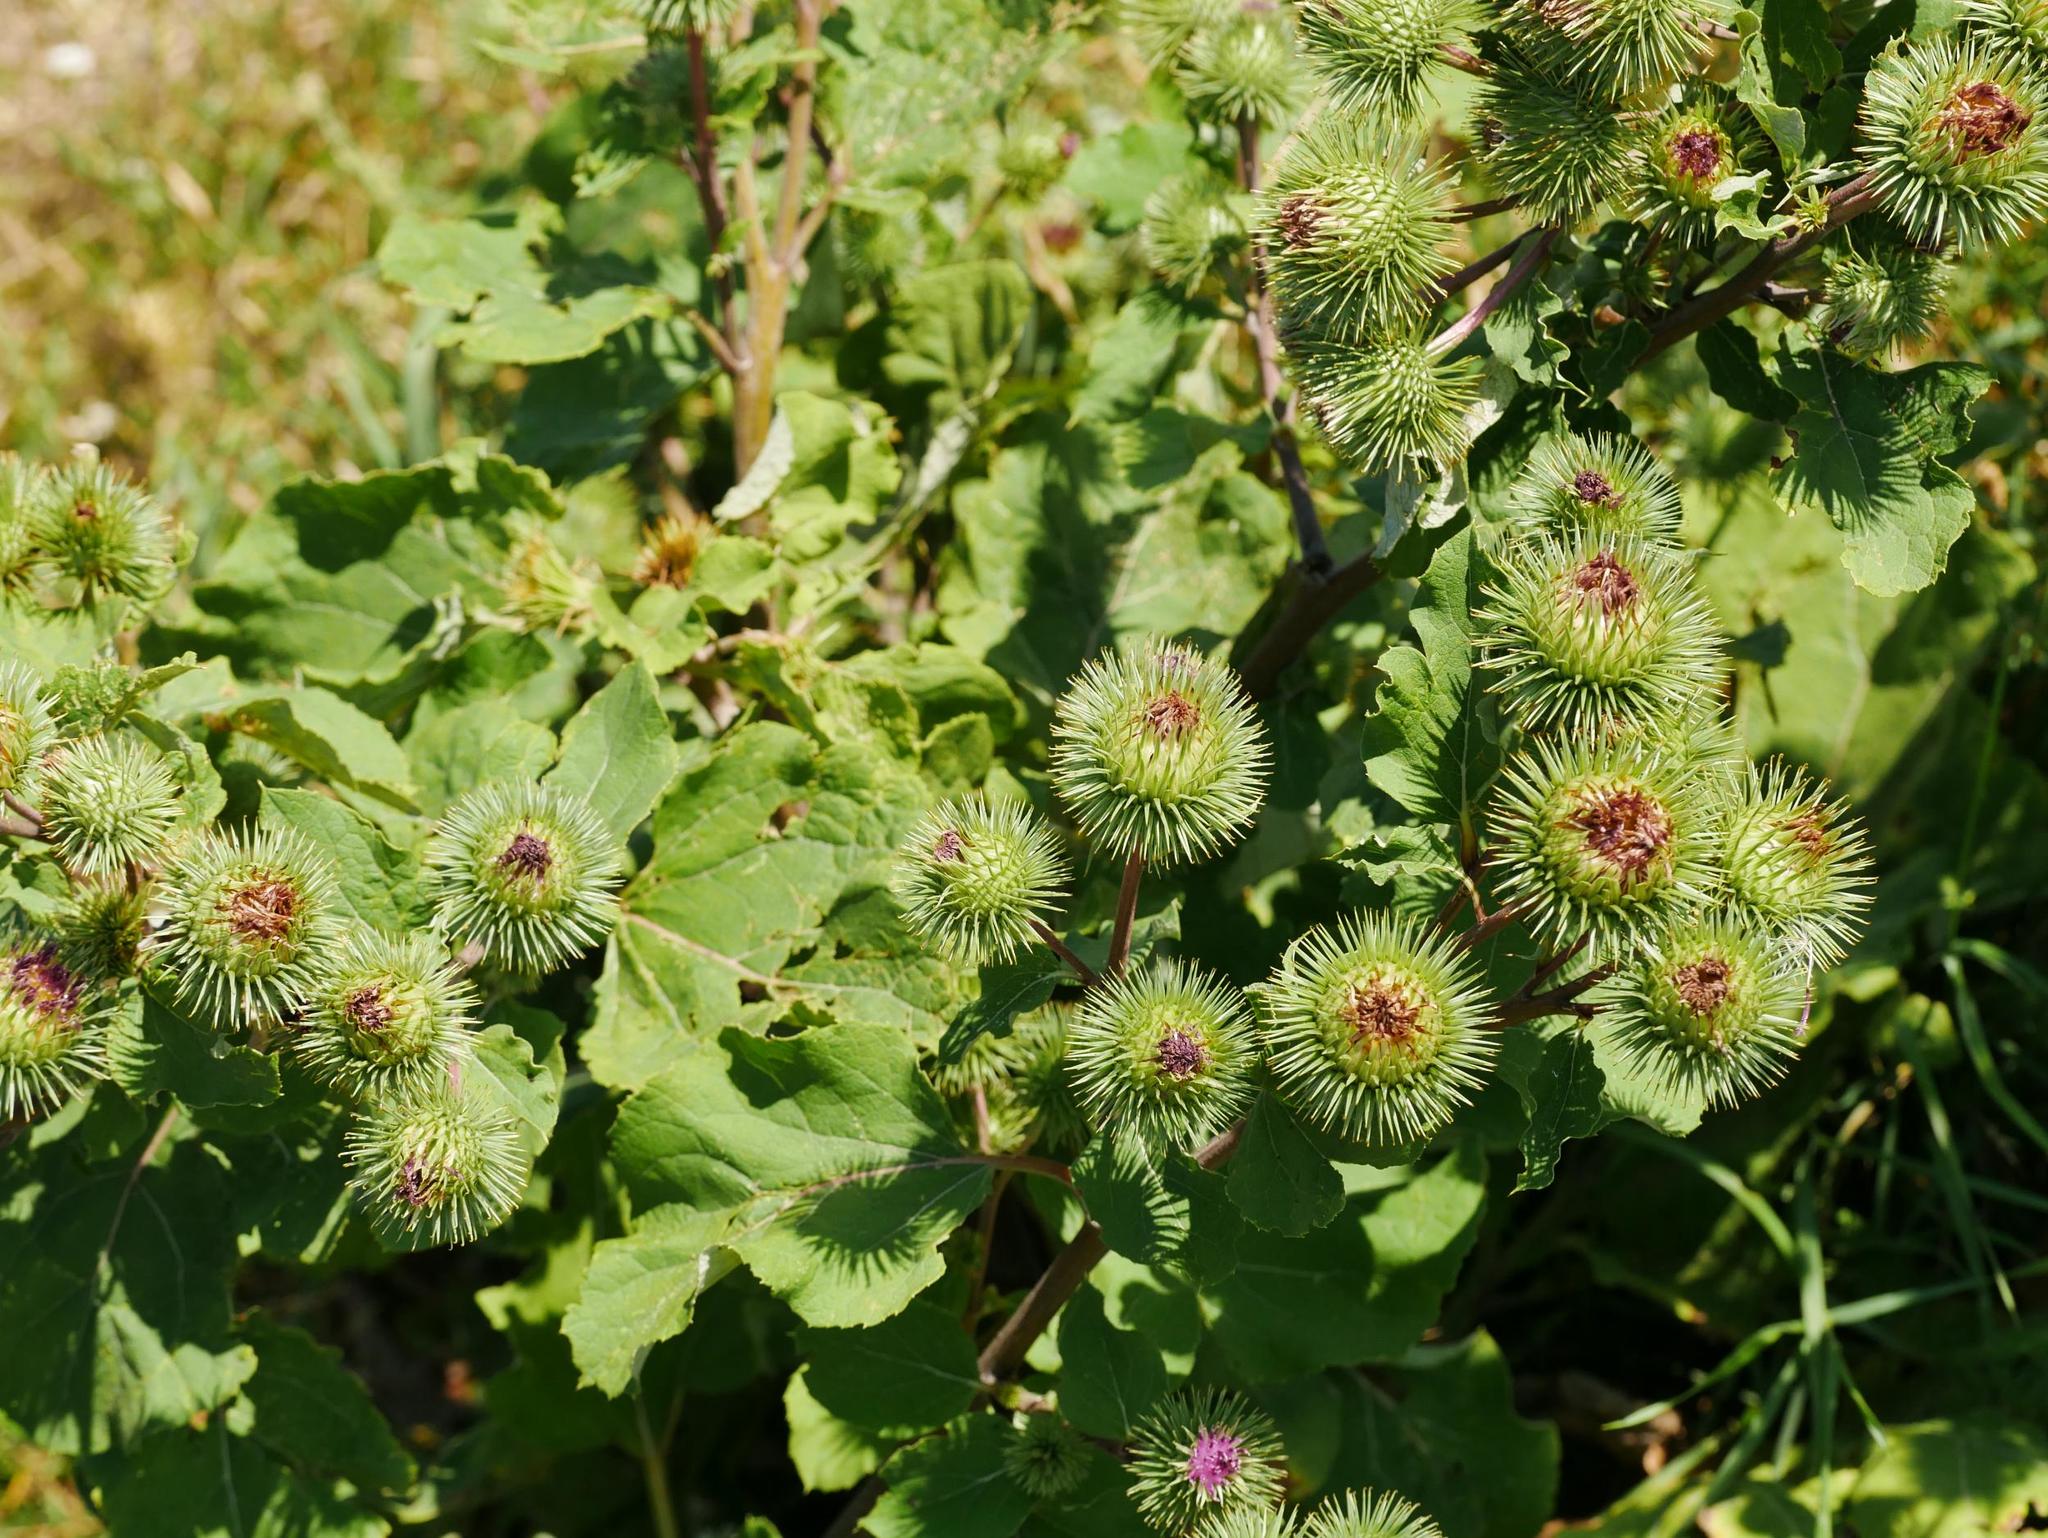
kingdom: Plantae
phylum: Tracheophyta
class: Magnoliopsida
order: Asterales
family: Asteraceae
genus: Arctium
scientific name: Arctium lappa
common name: Greater burdock
